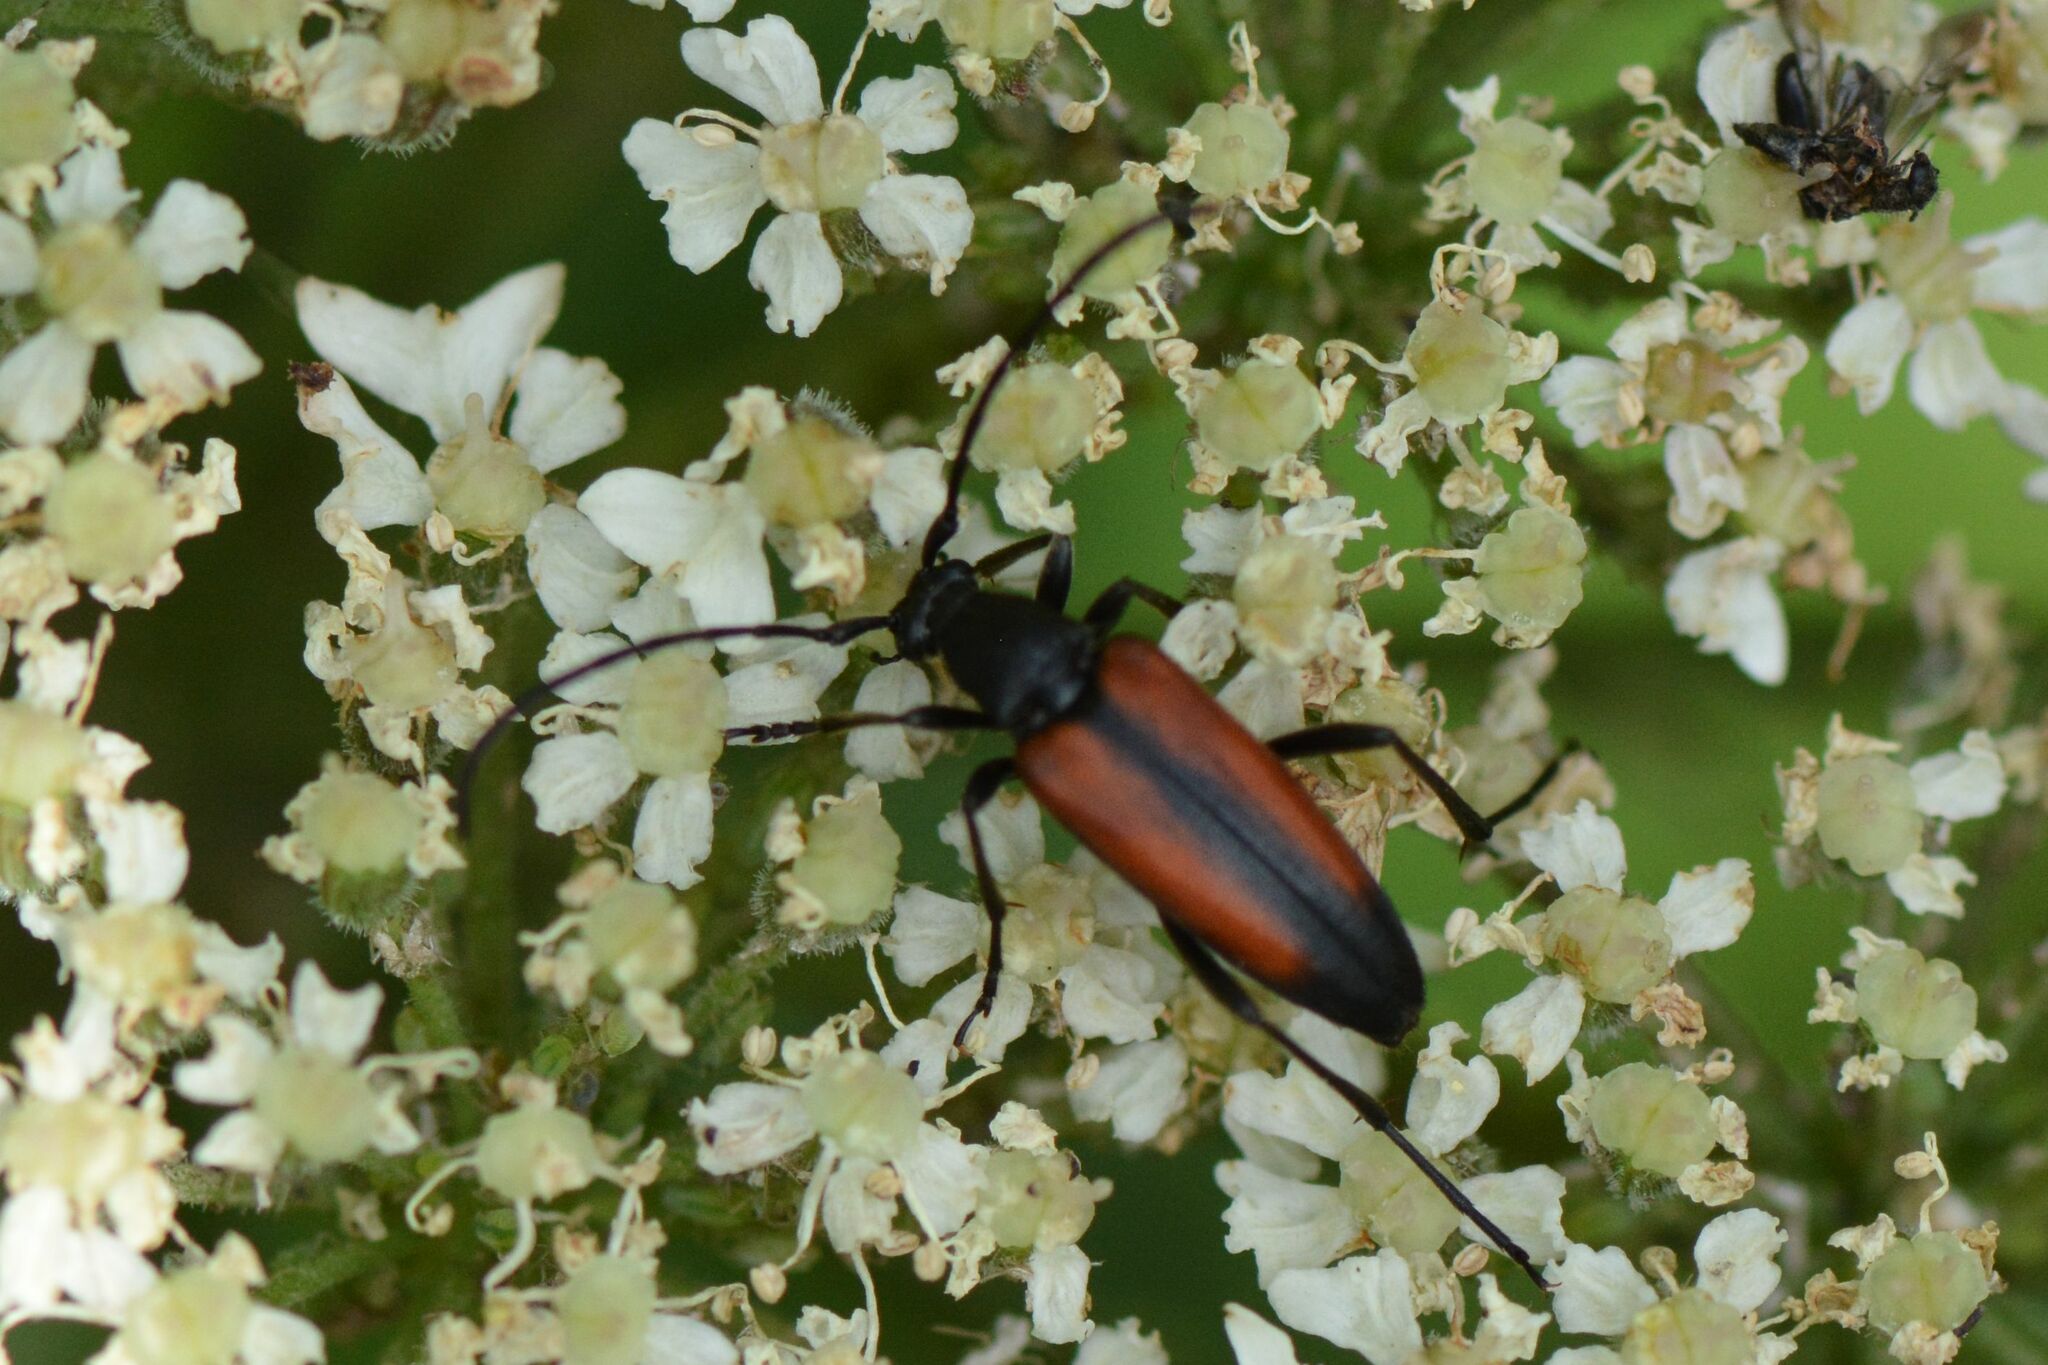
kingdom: Animalia
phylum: Arthropoda
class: Insecta
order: Coleoptera
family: Cerambycidae
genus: Stenurella
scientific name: Stenurella melanura
